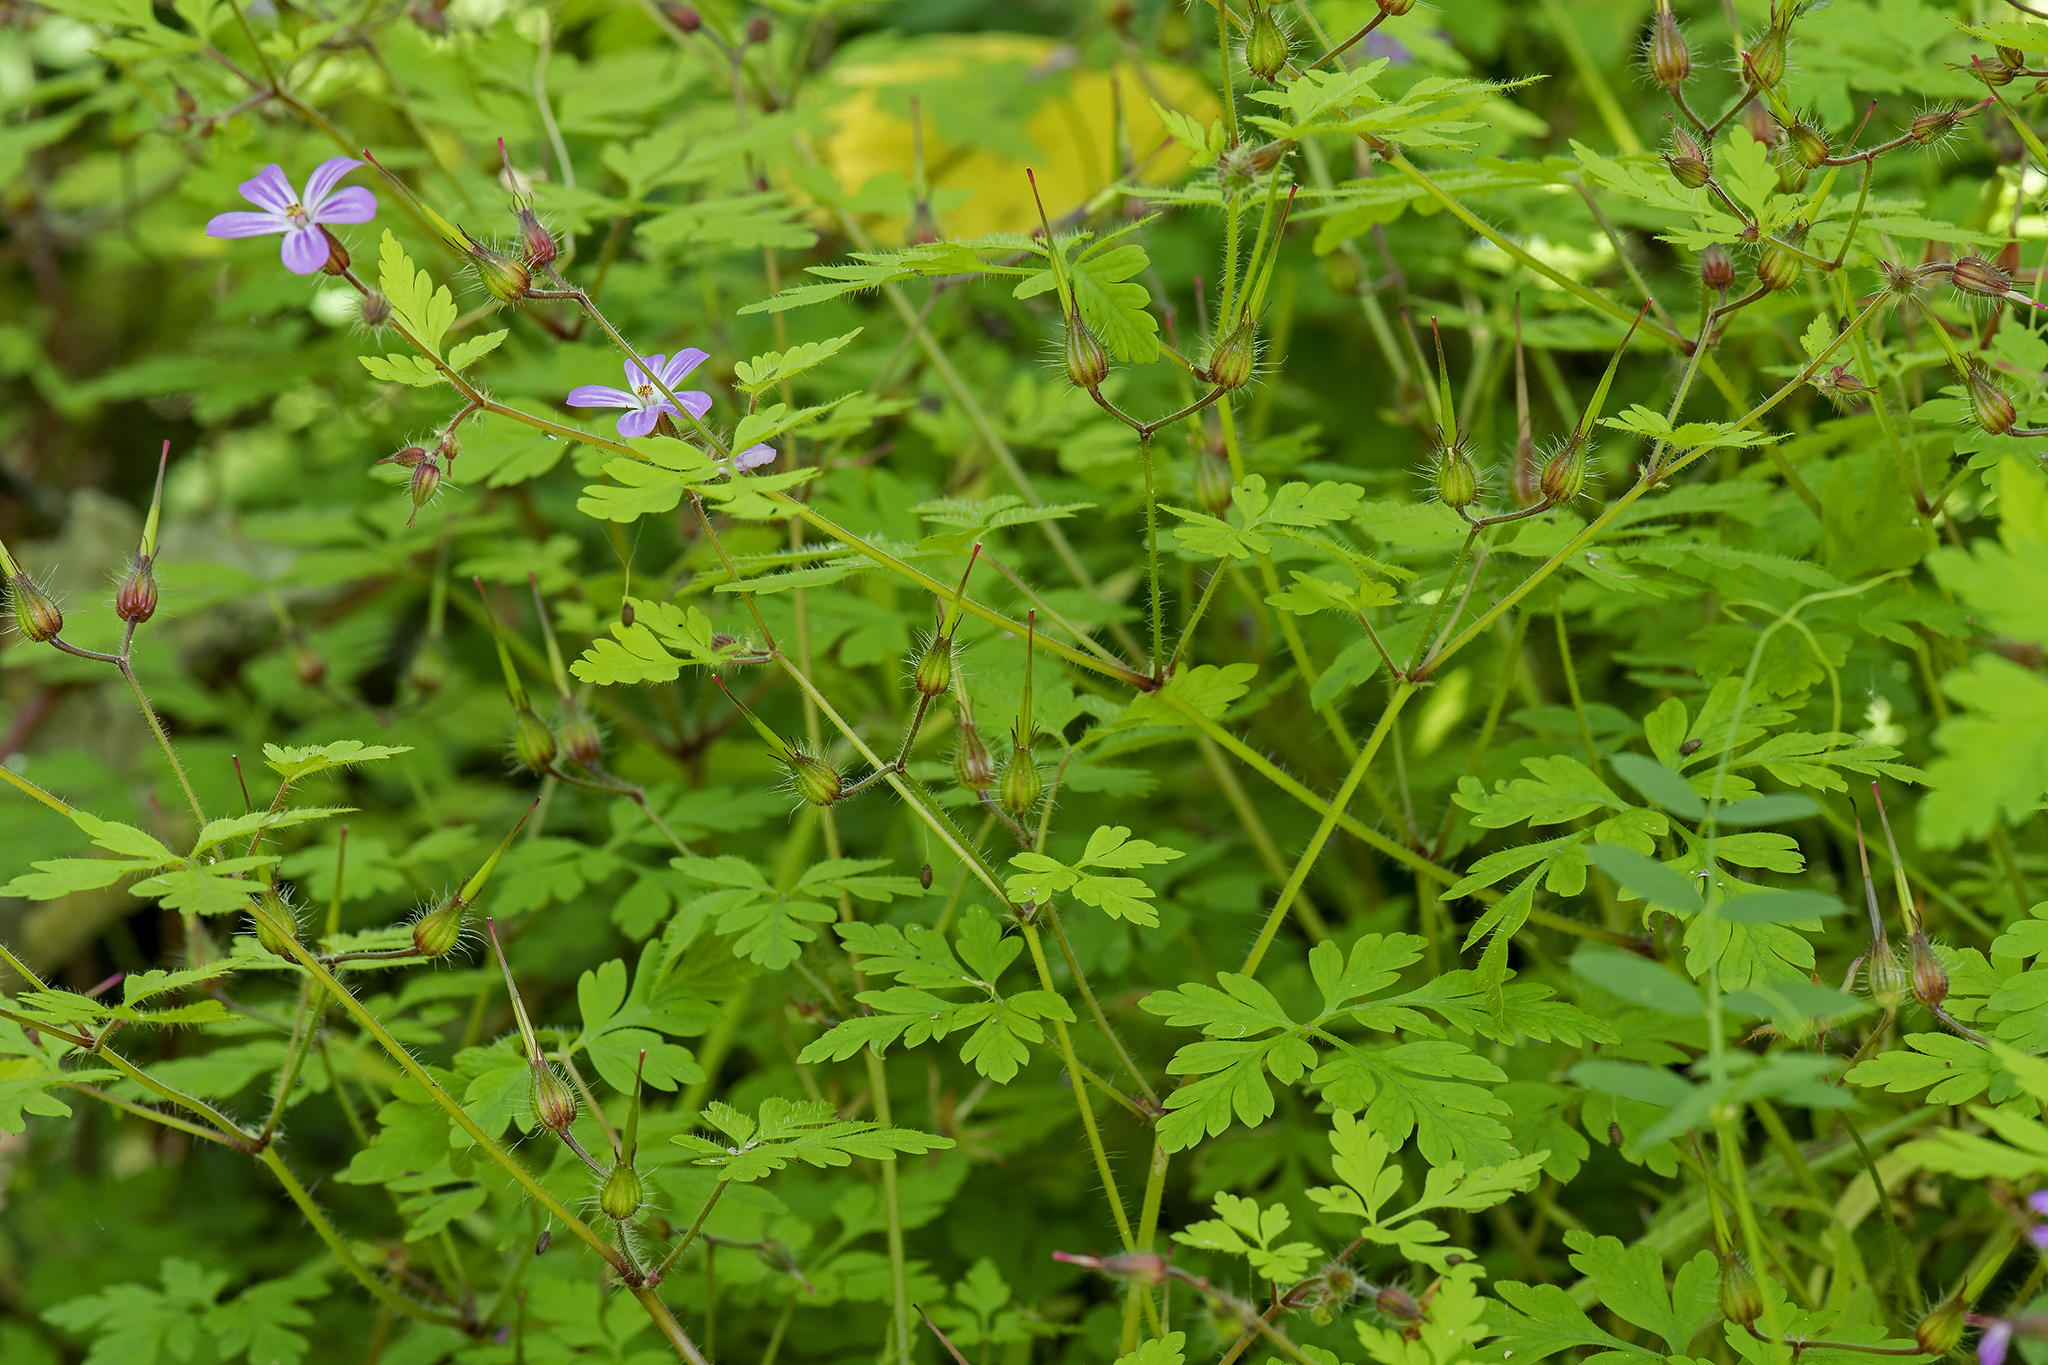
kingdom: Plantae
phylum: Tracheophyta
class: Magnoliopsida
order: Geraniales
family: Geraniaceae
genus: Geranium
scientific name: Geranium robertianum
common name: Herb-robert
